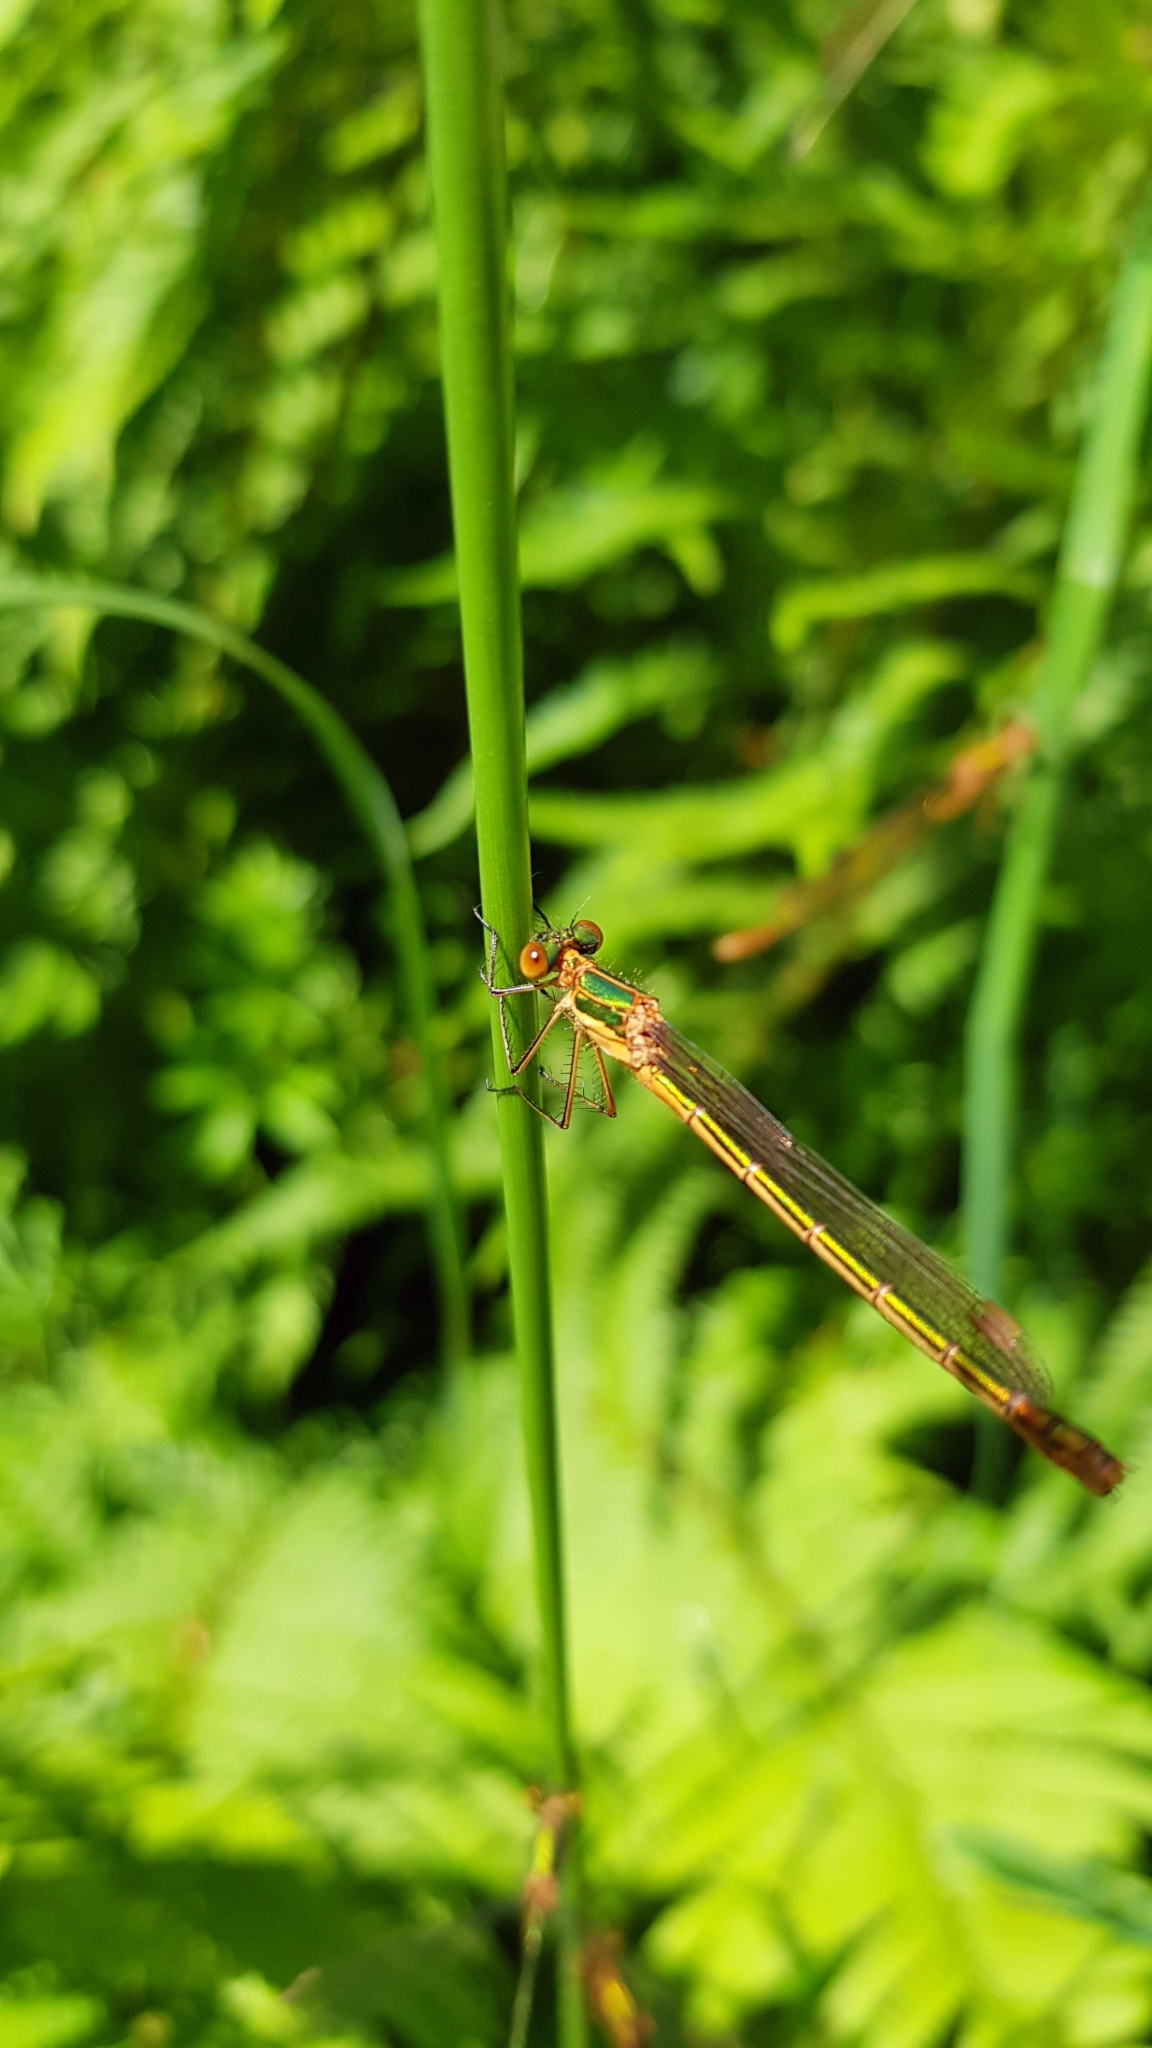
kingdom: Animalia
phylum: Arthropoda
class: Insecta
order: Odonata
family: Lestidae
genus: Lestes
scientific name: Lestes sponsa
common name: Common spreadwing
